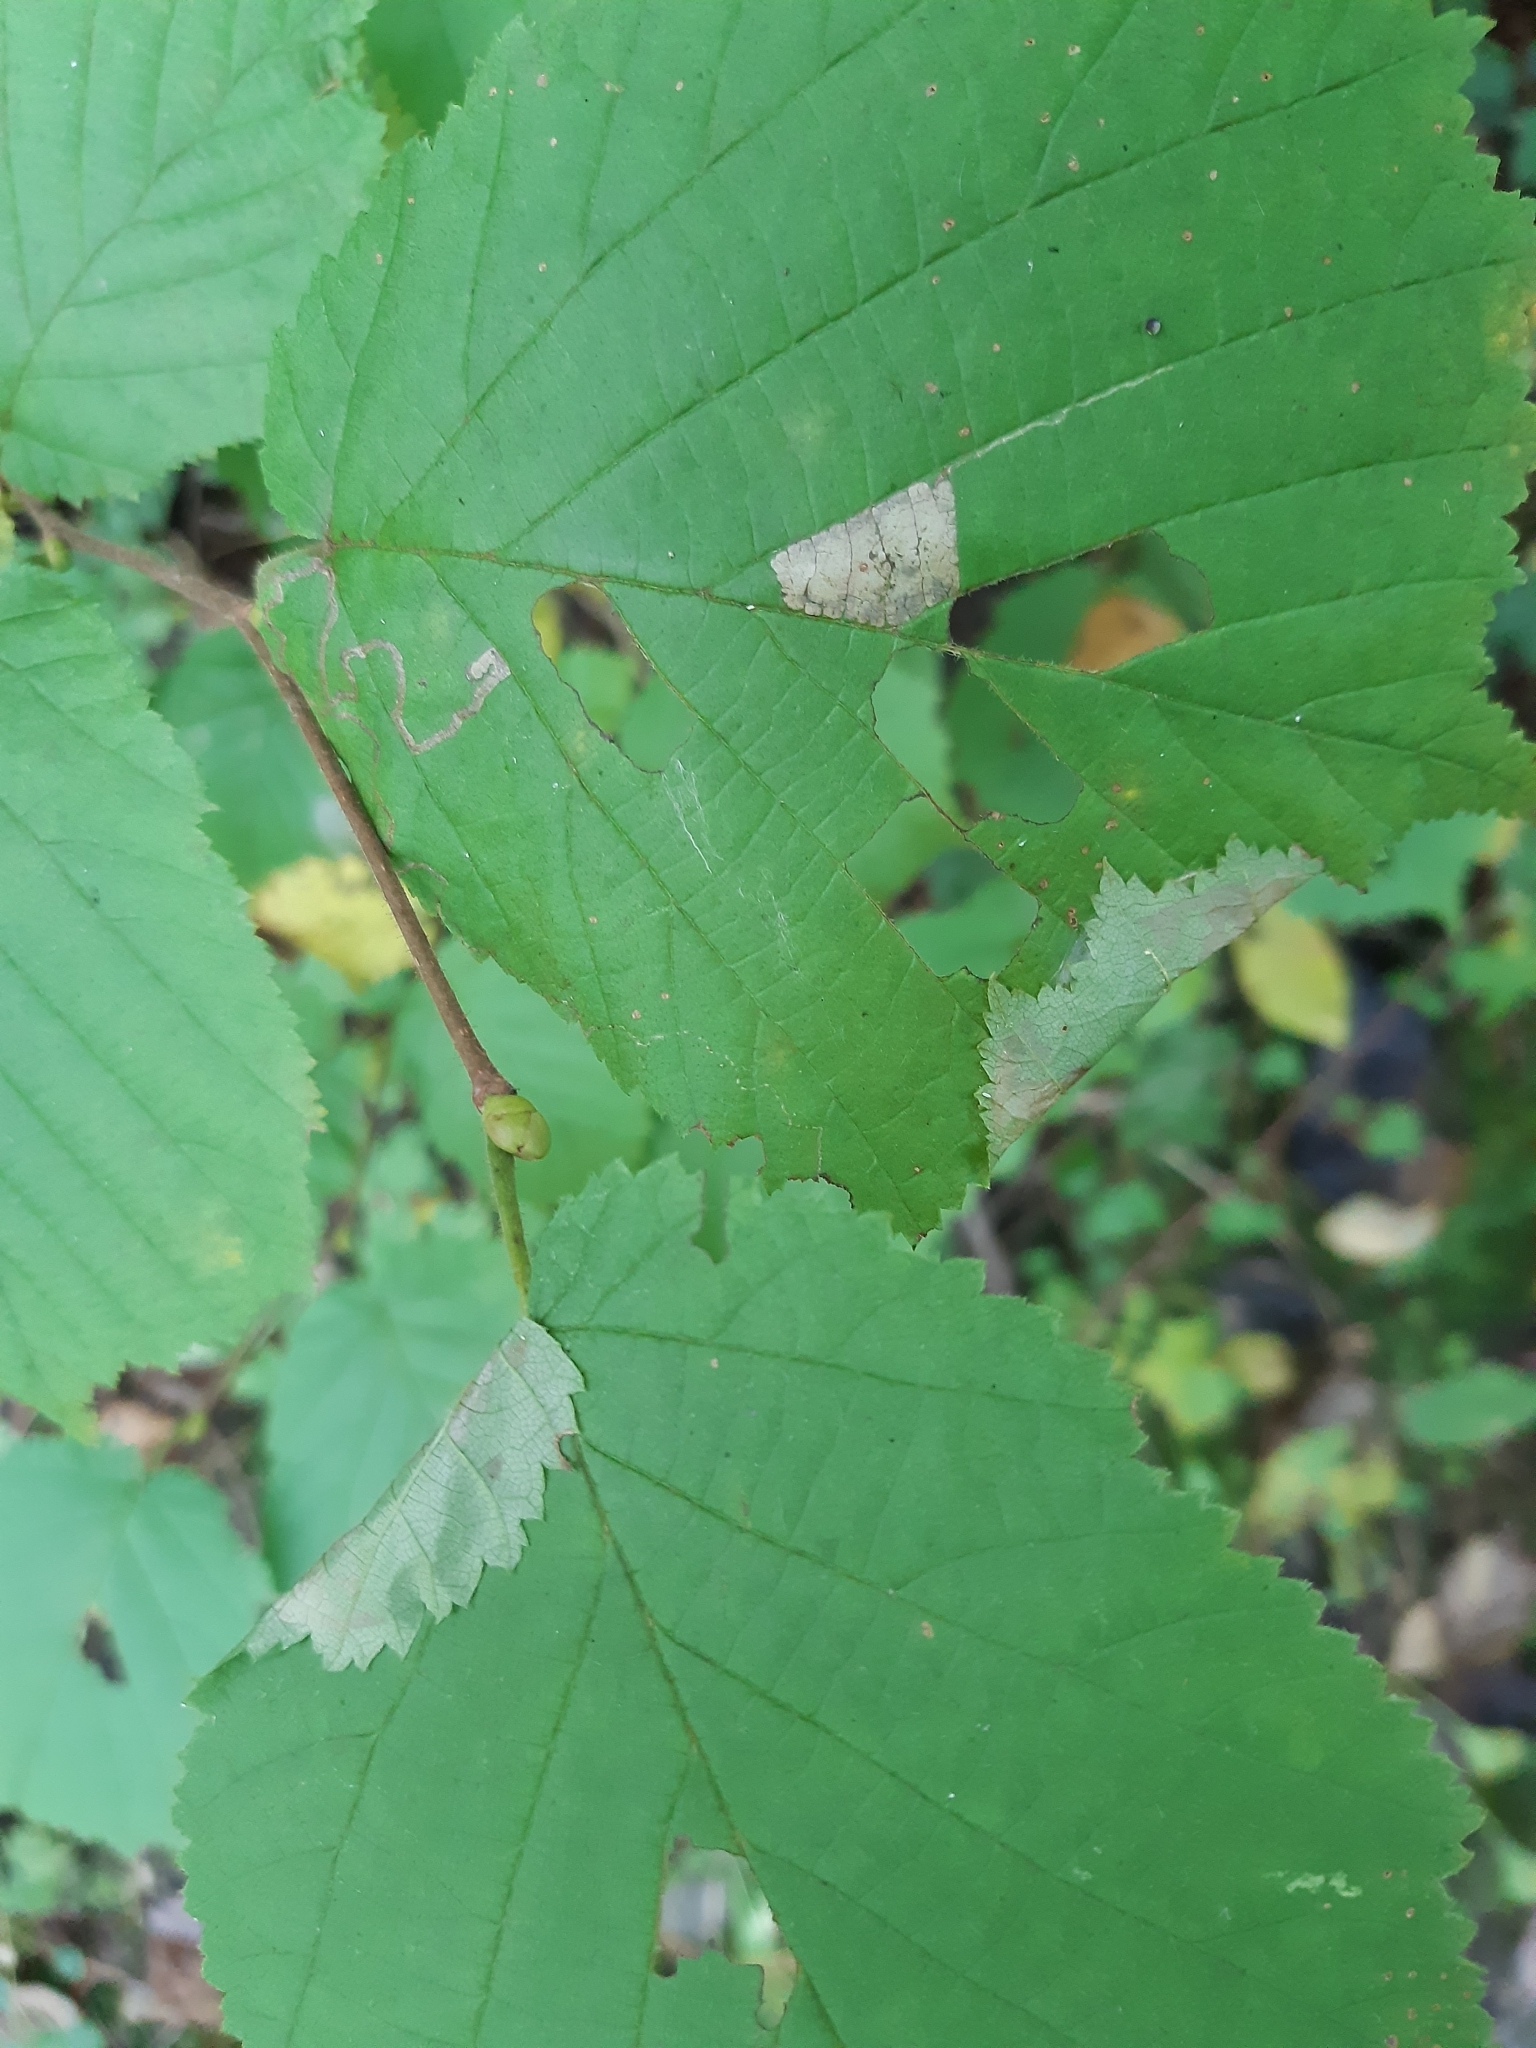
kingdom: Animalia
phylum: Arthropoda
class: Insecta
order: Lepidoptera
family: Gracillariidae
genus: Parornix
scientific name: Parornix devoniella
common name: Hazel slender
